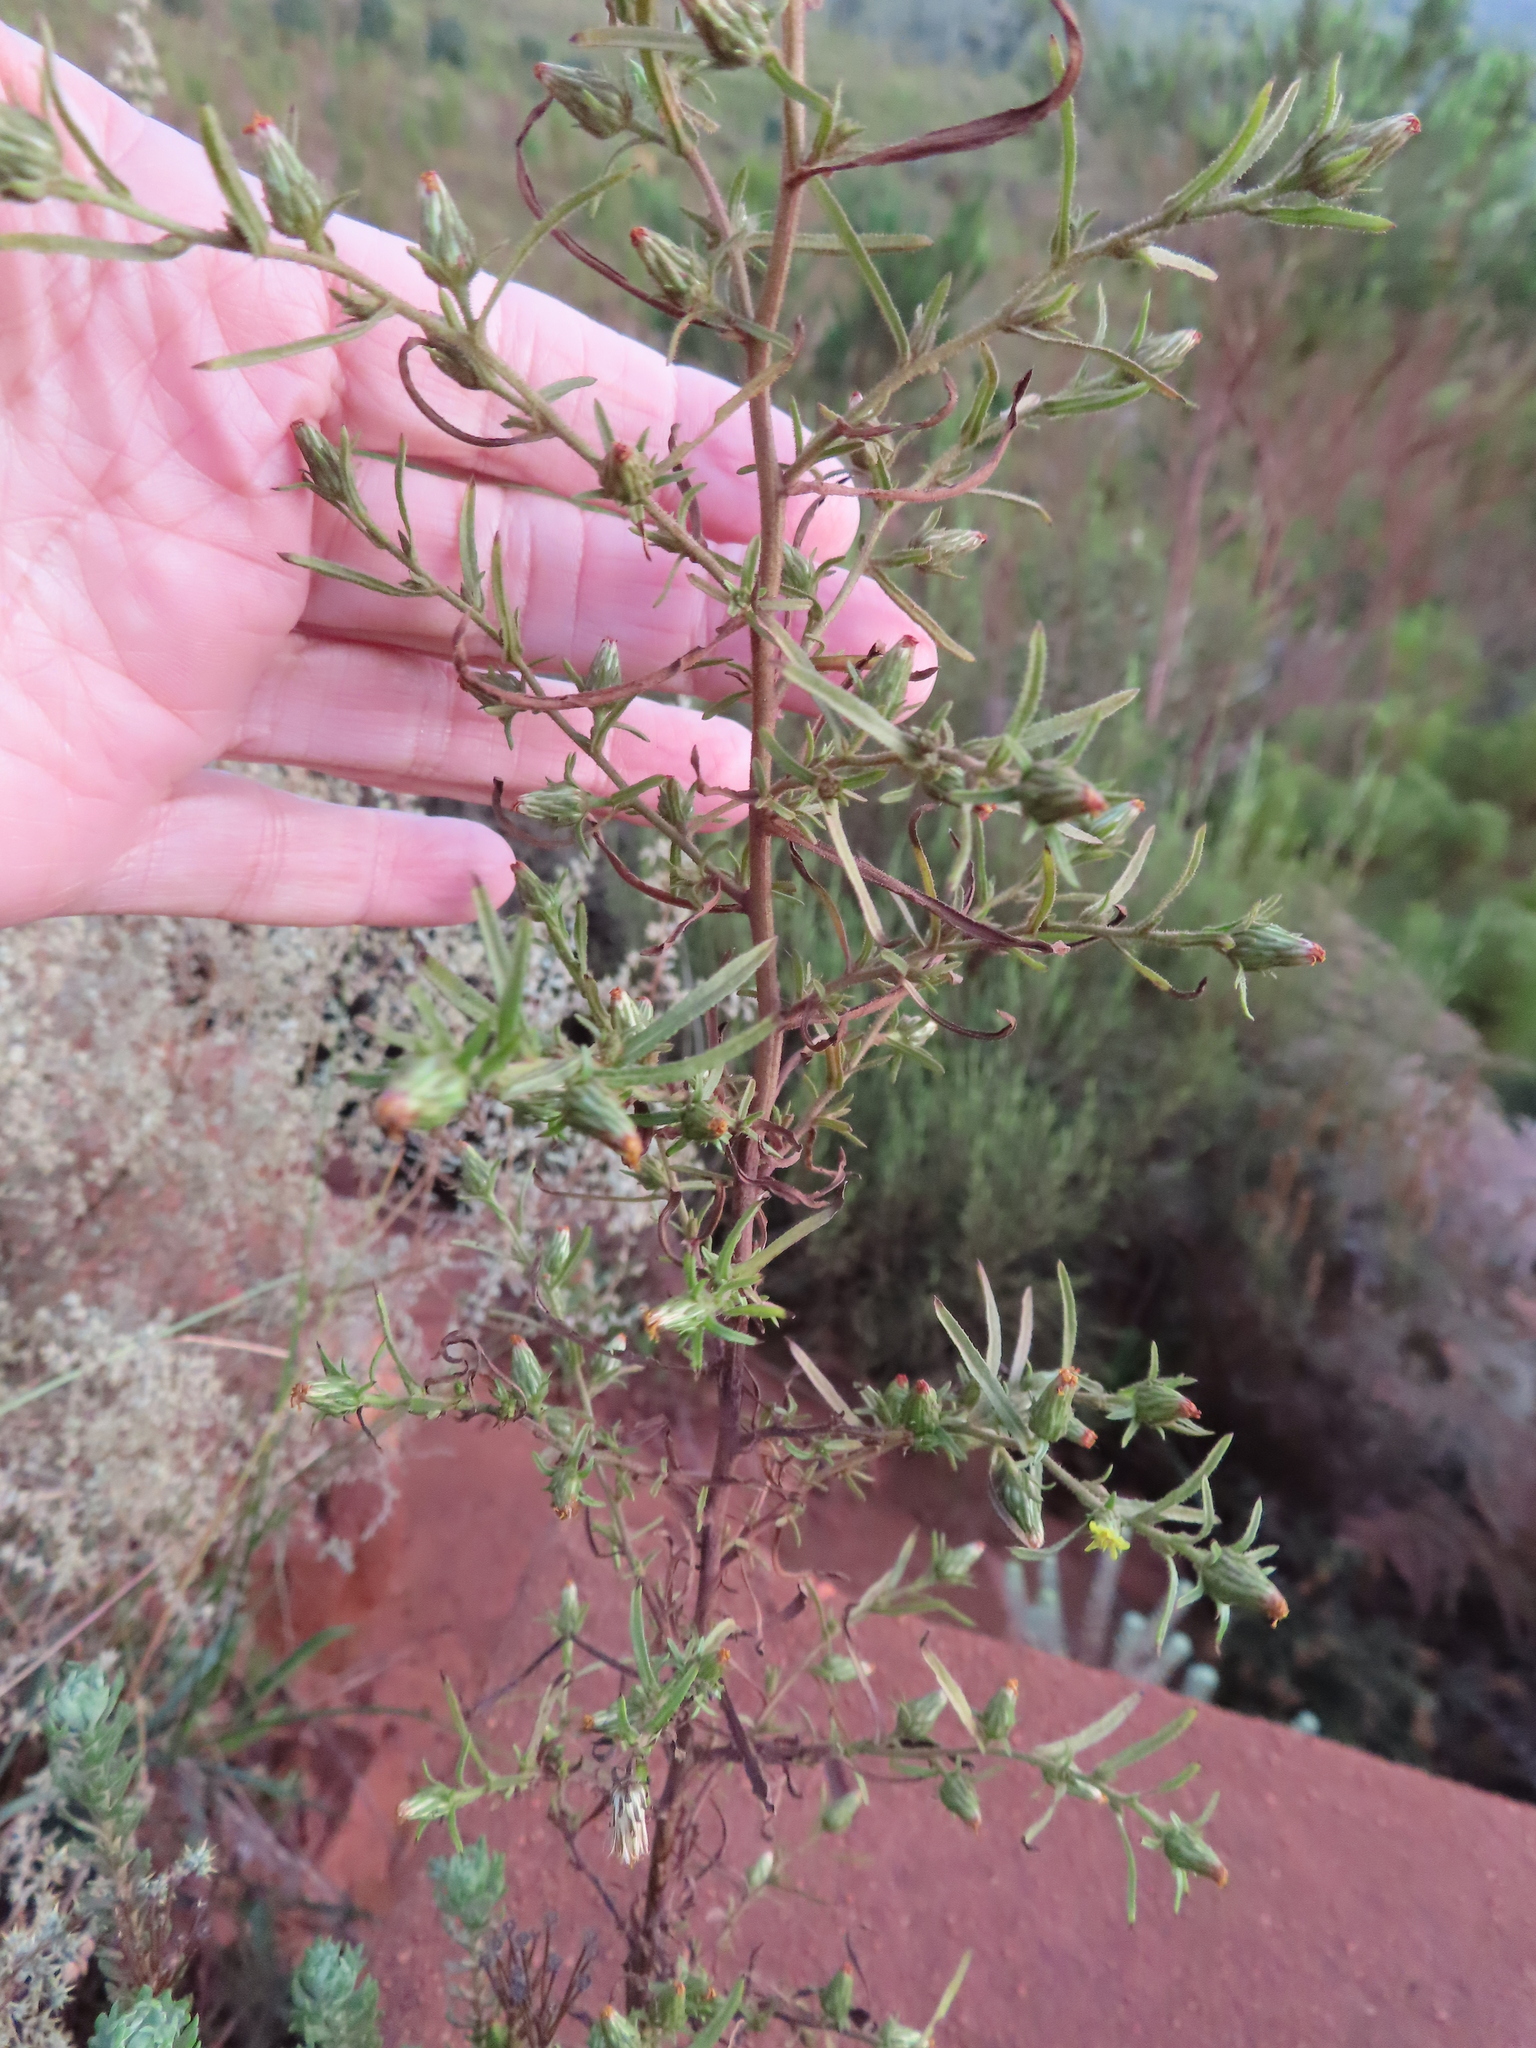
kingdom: Plantae
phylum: Tracheophyta
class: Magnoliopsida
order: Asterales
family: Asteraceae
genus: Dittrichia
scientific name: Dittrichia graveolens
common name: Stinking fleabane
